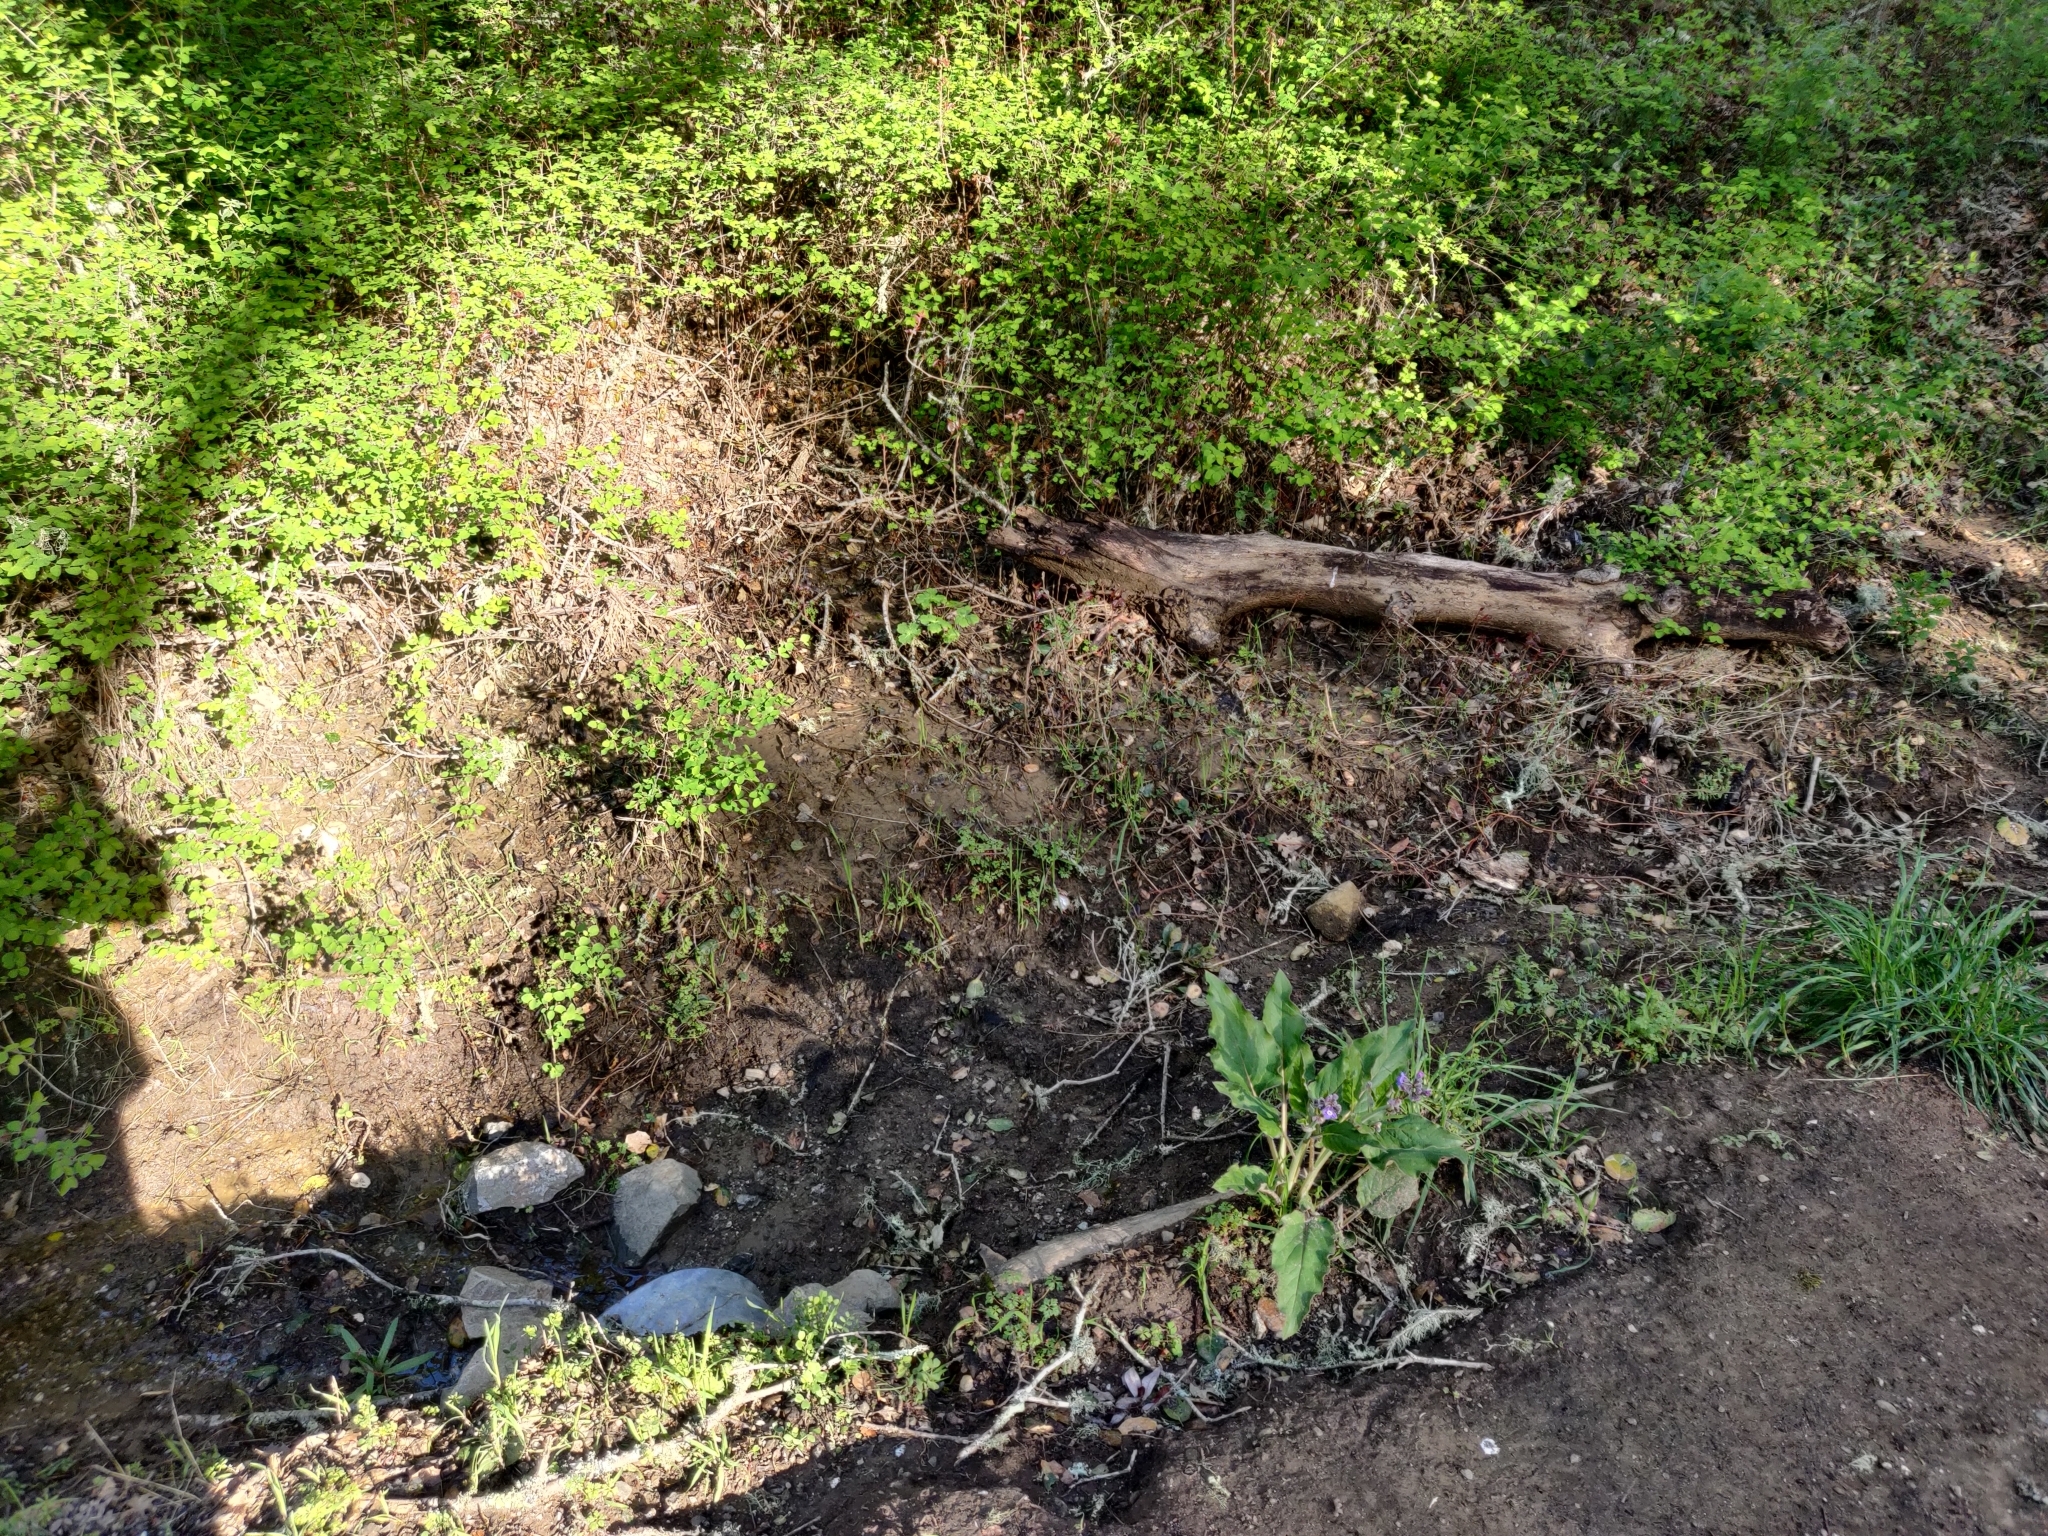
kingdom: Plantae
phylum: Tracheophyta
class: Magnoliopsida
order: Boraginales
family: Boraginaceae
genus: Adelinia
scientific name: Adelinia grande
